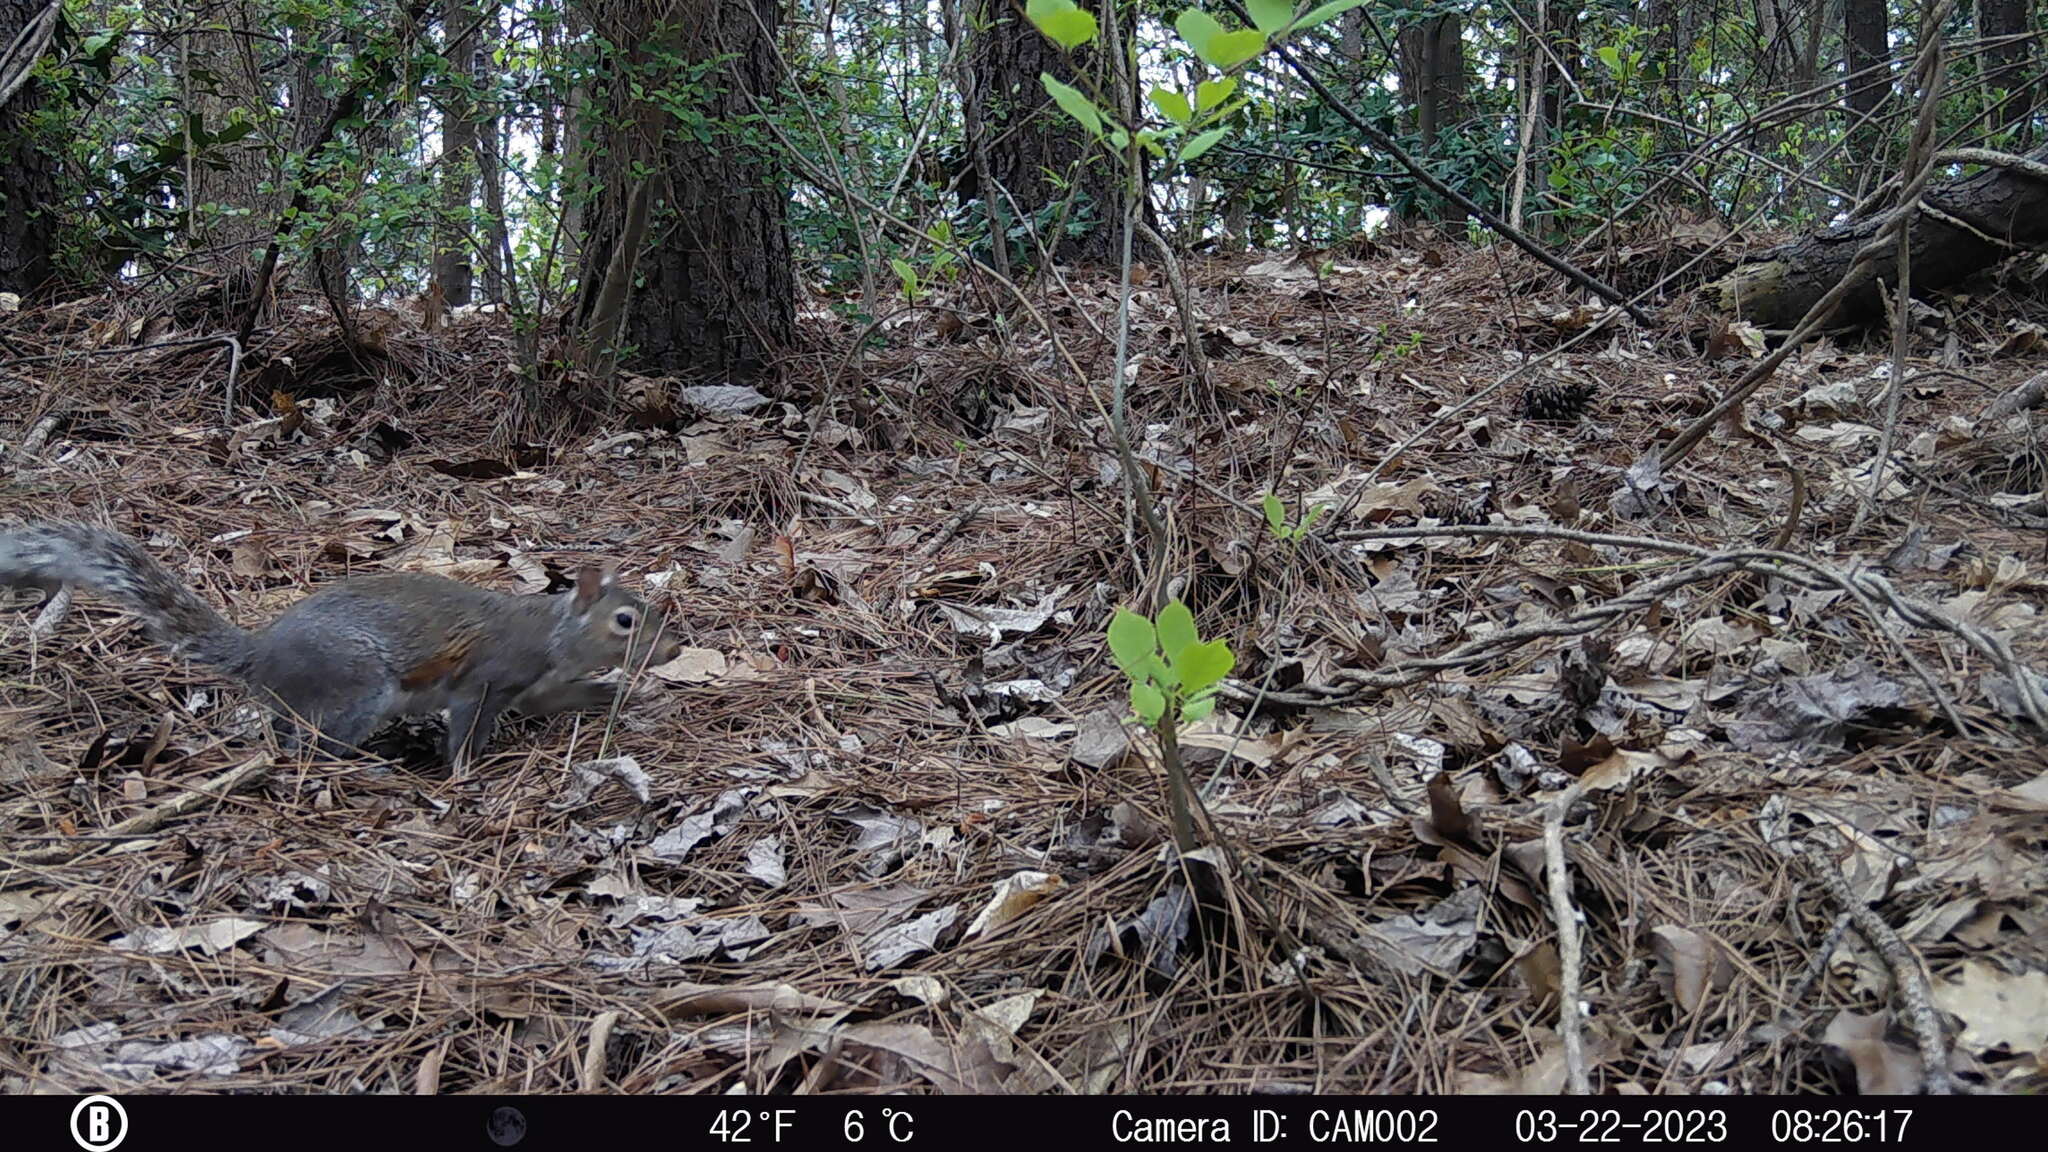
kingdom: Animalia
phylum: Chordata
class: Mammalia
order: Rodentia
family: Sciuridae
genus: Sciurus
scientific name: Sciurus carolinensis
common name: Eastern gray squirrel
